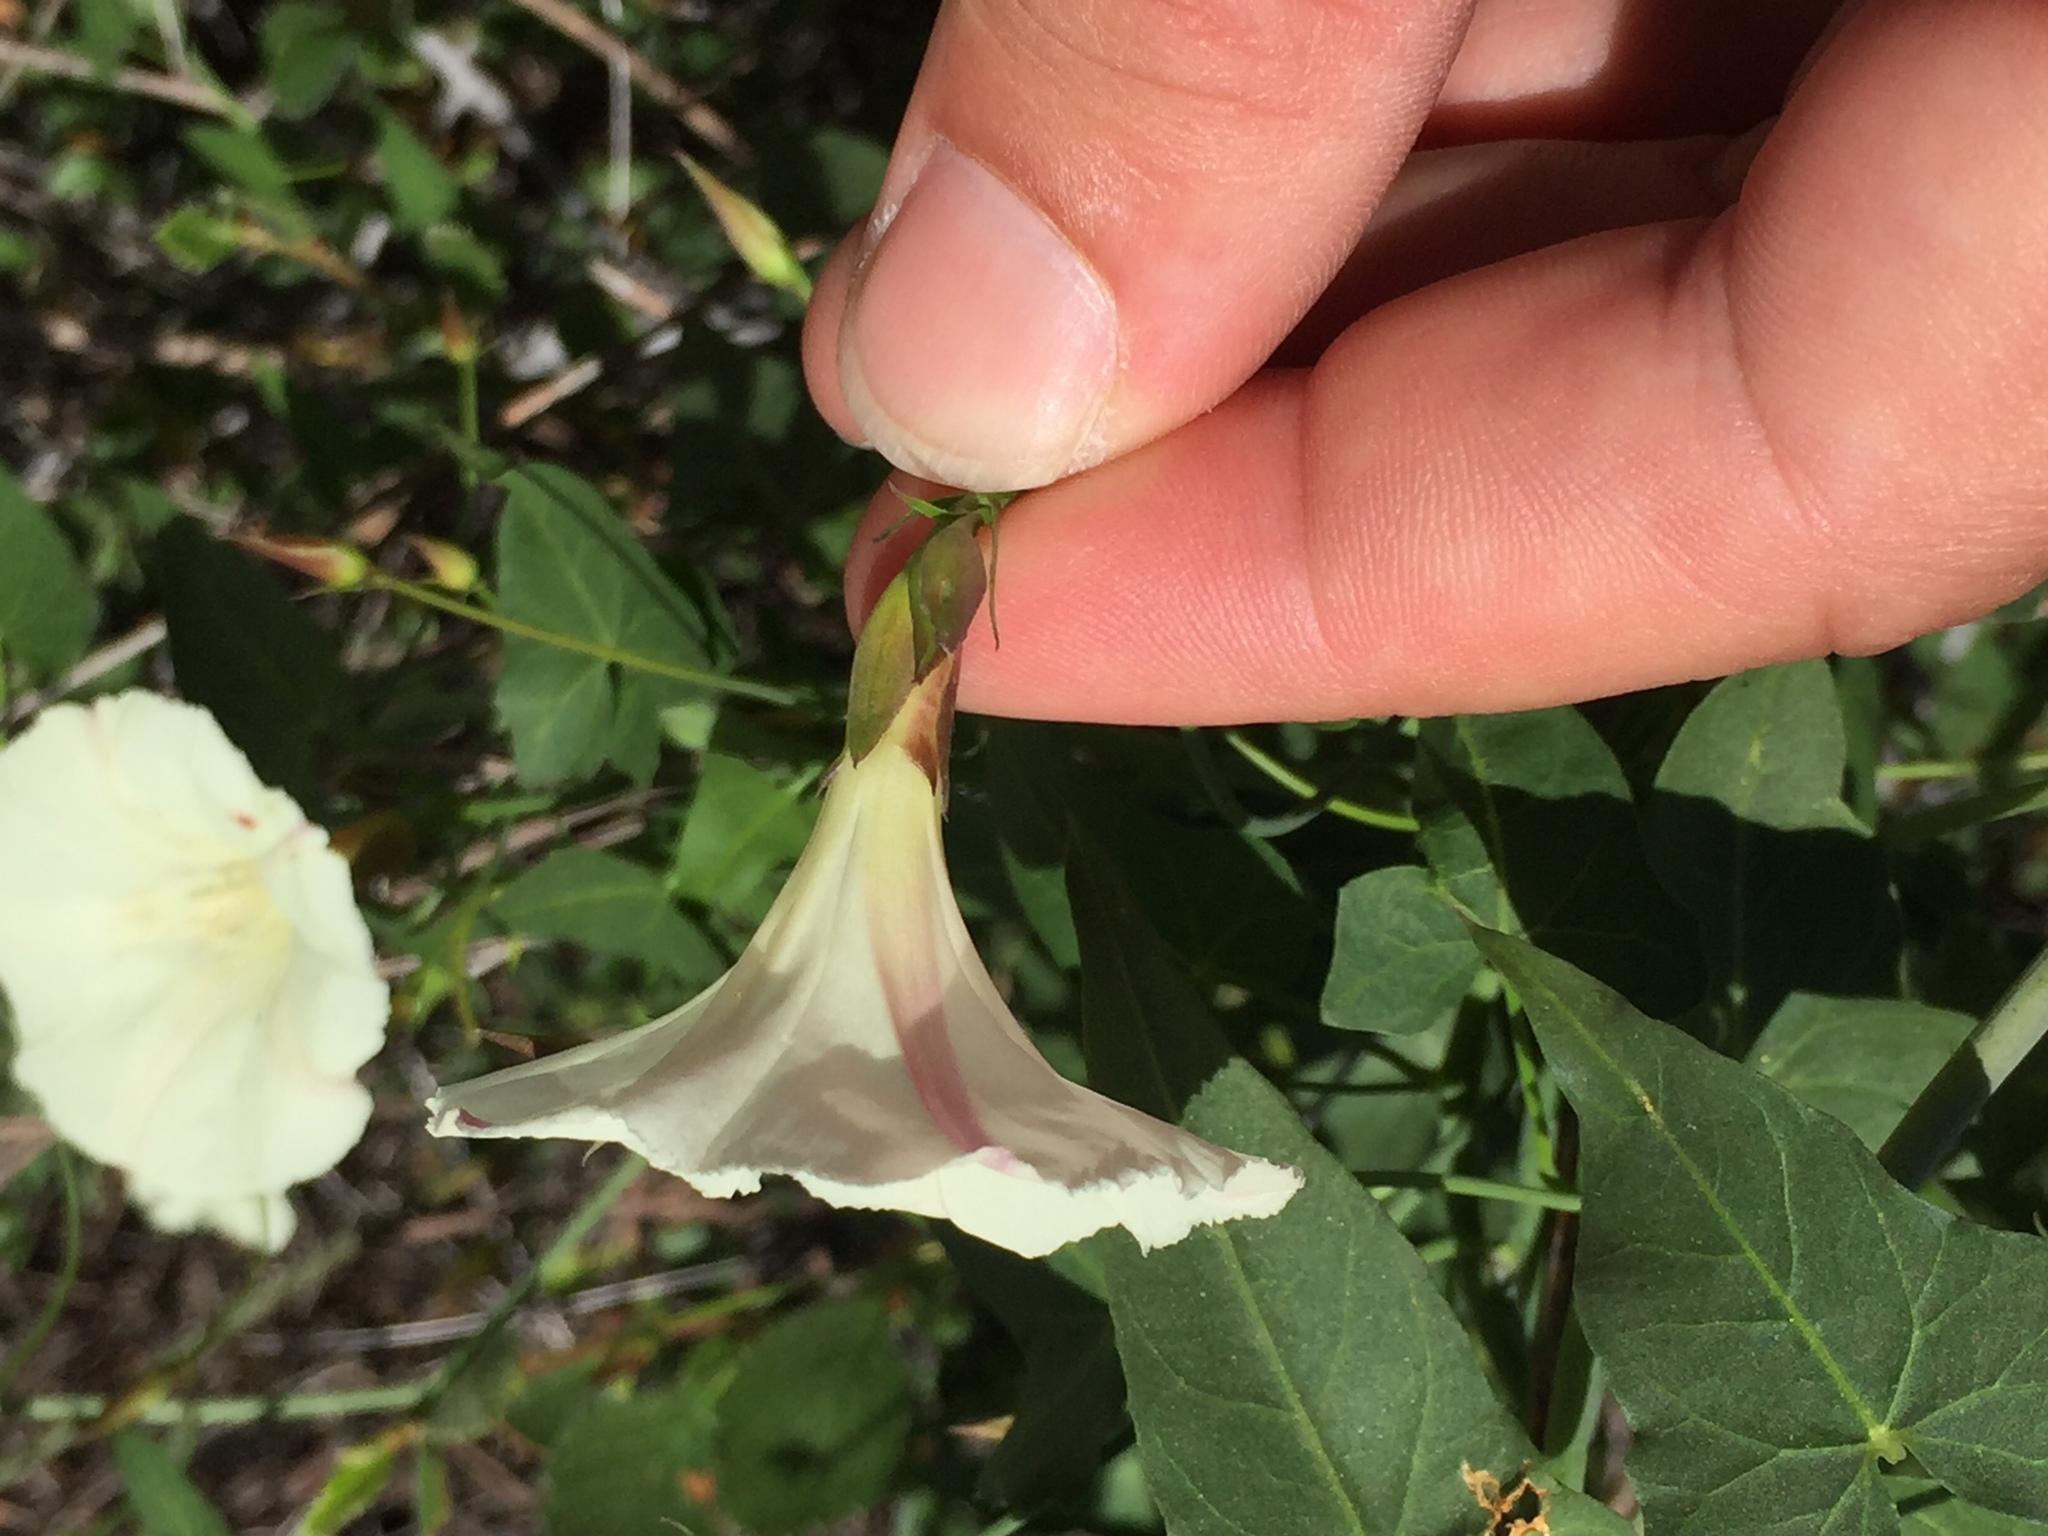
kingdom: Plantae
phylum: Tracheophyta
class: Magnoliopsida
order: Solanales
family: Convolvulaceae
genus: Calystegia
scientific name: Calystegia purpurata
